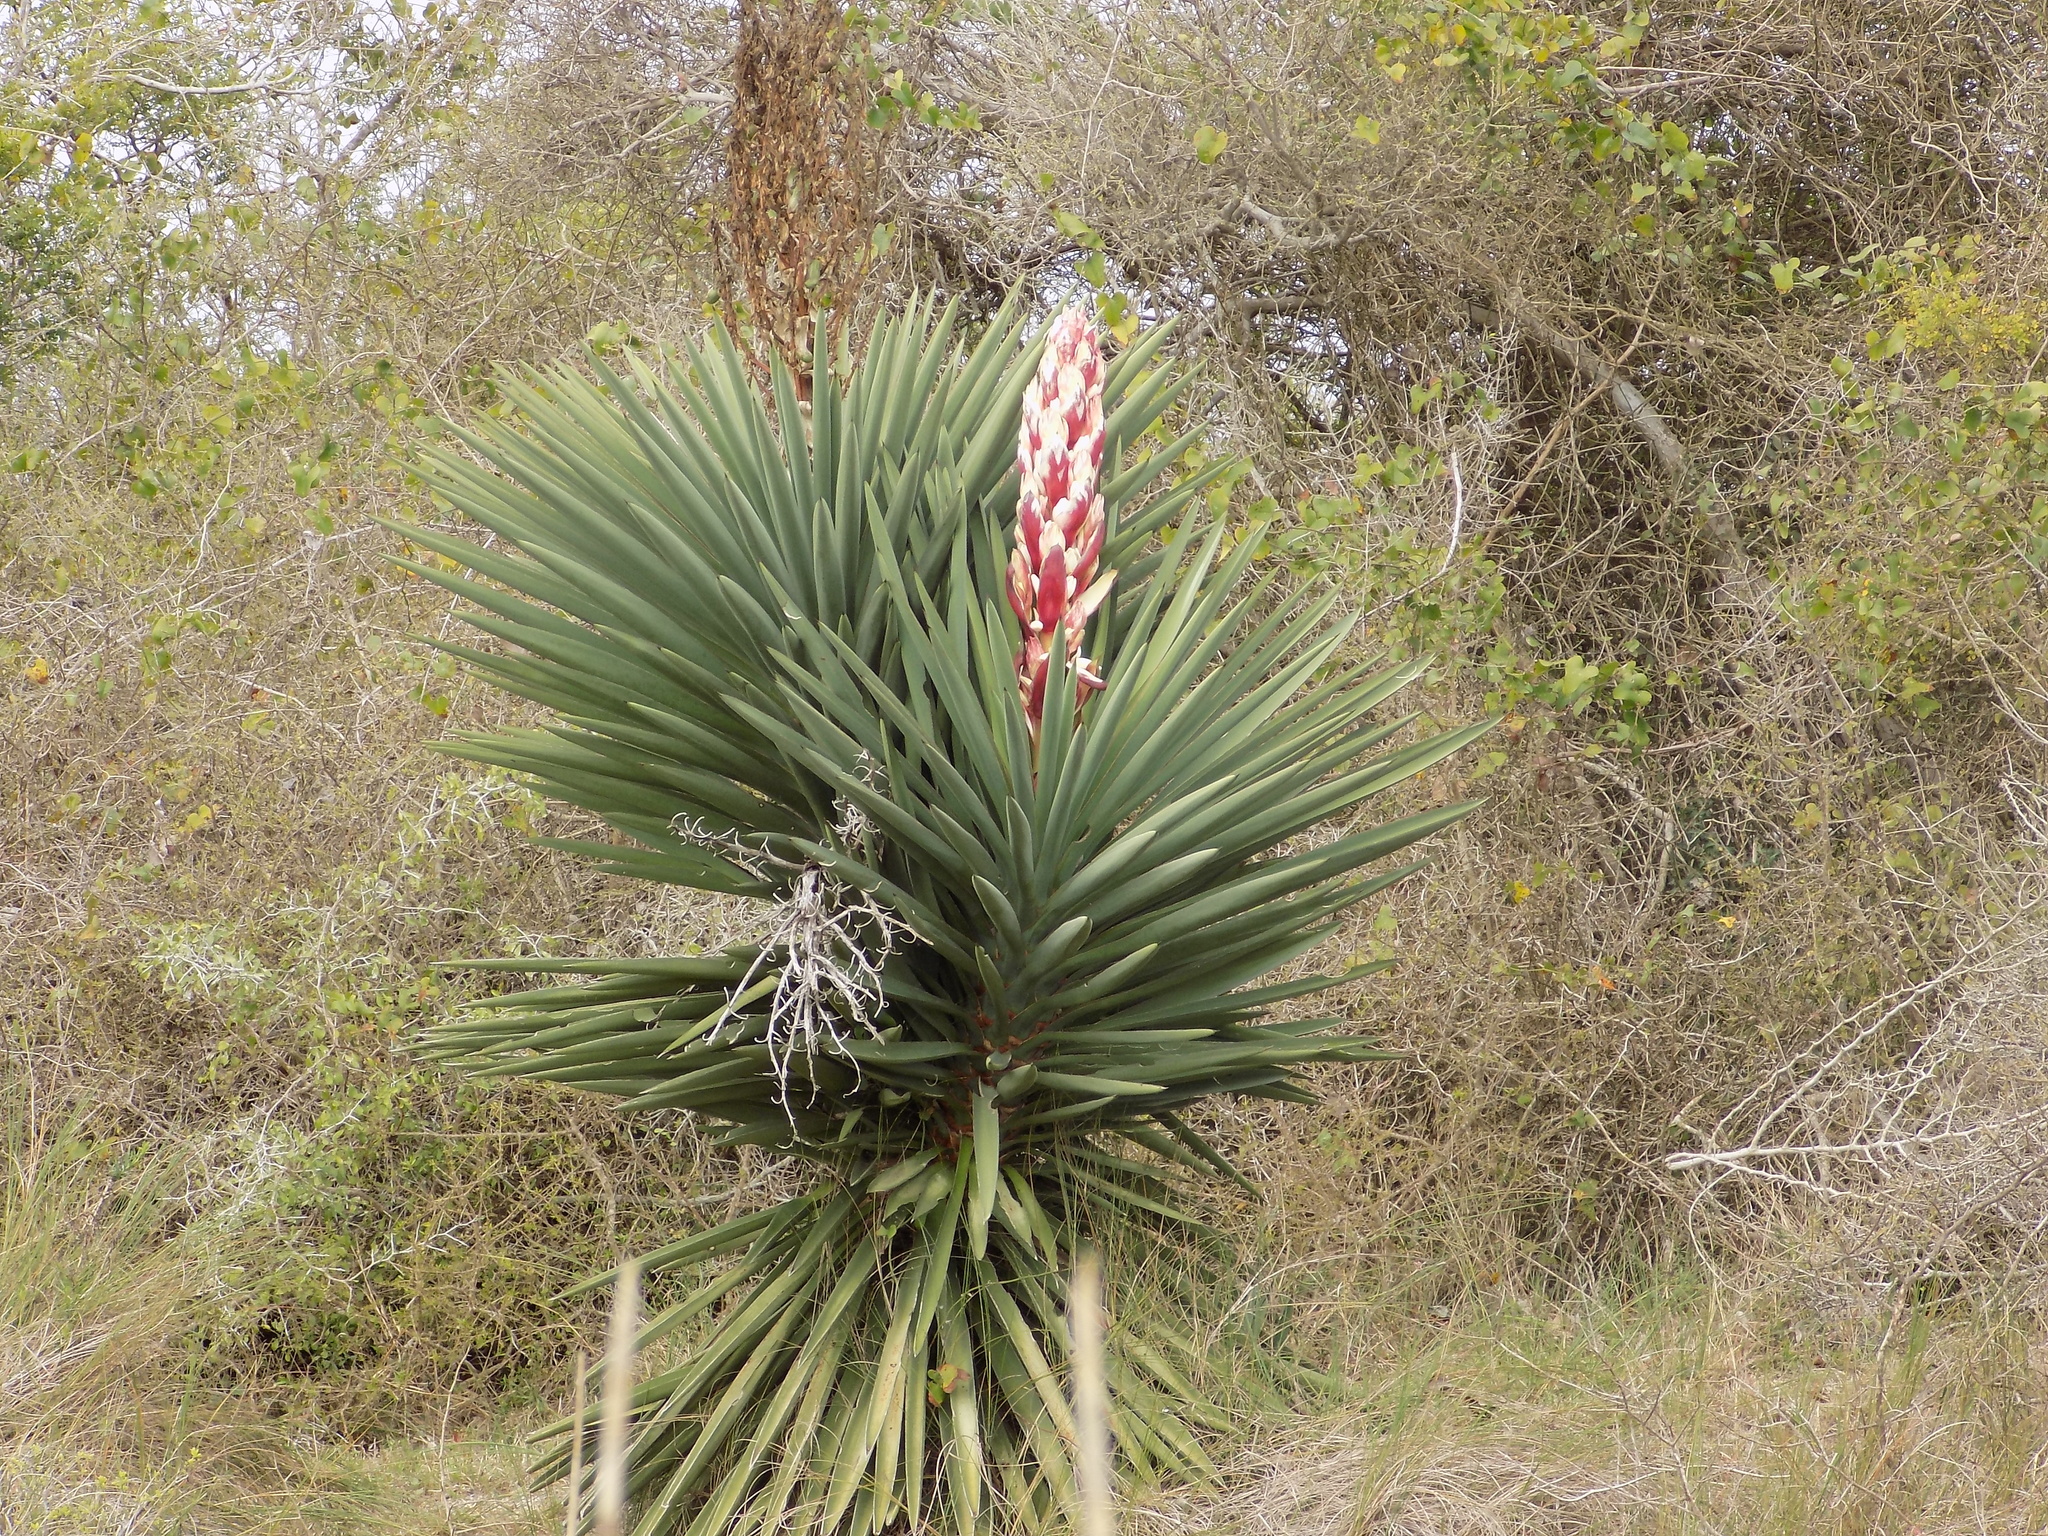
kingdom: Plantae
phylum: Tracheophyta
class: Liliopsida
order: Asparagales
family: Asparagaceae
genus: Yucca
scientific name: Yucca treculiana
